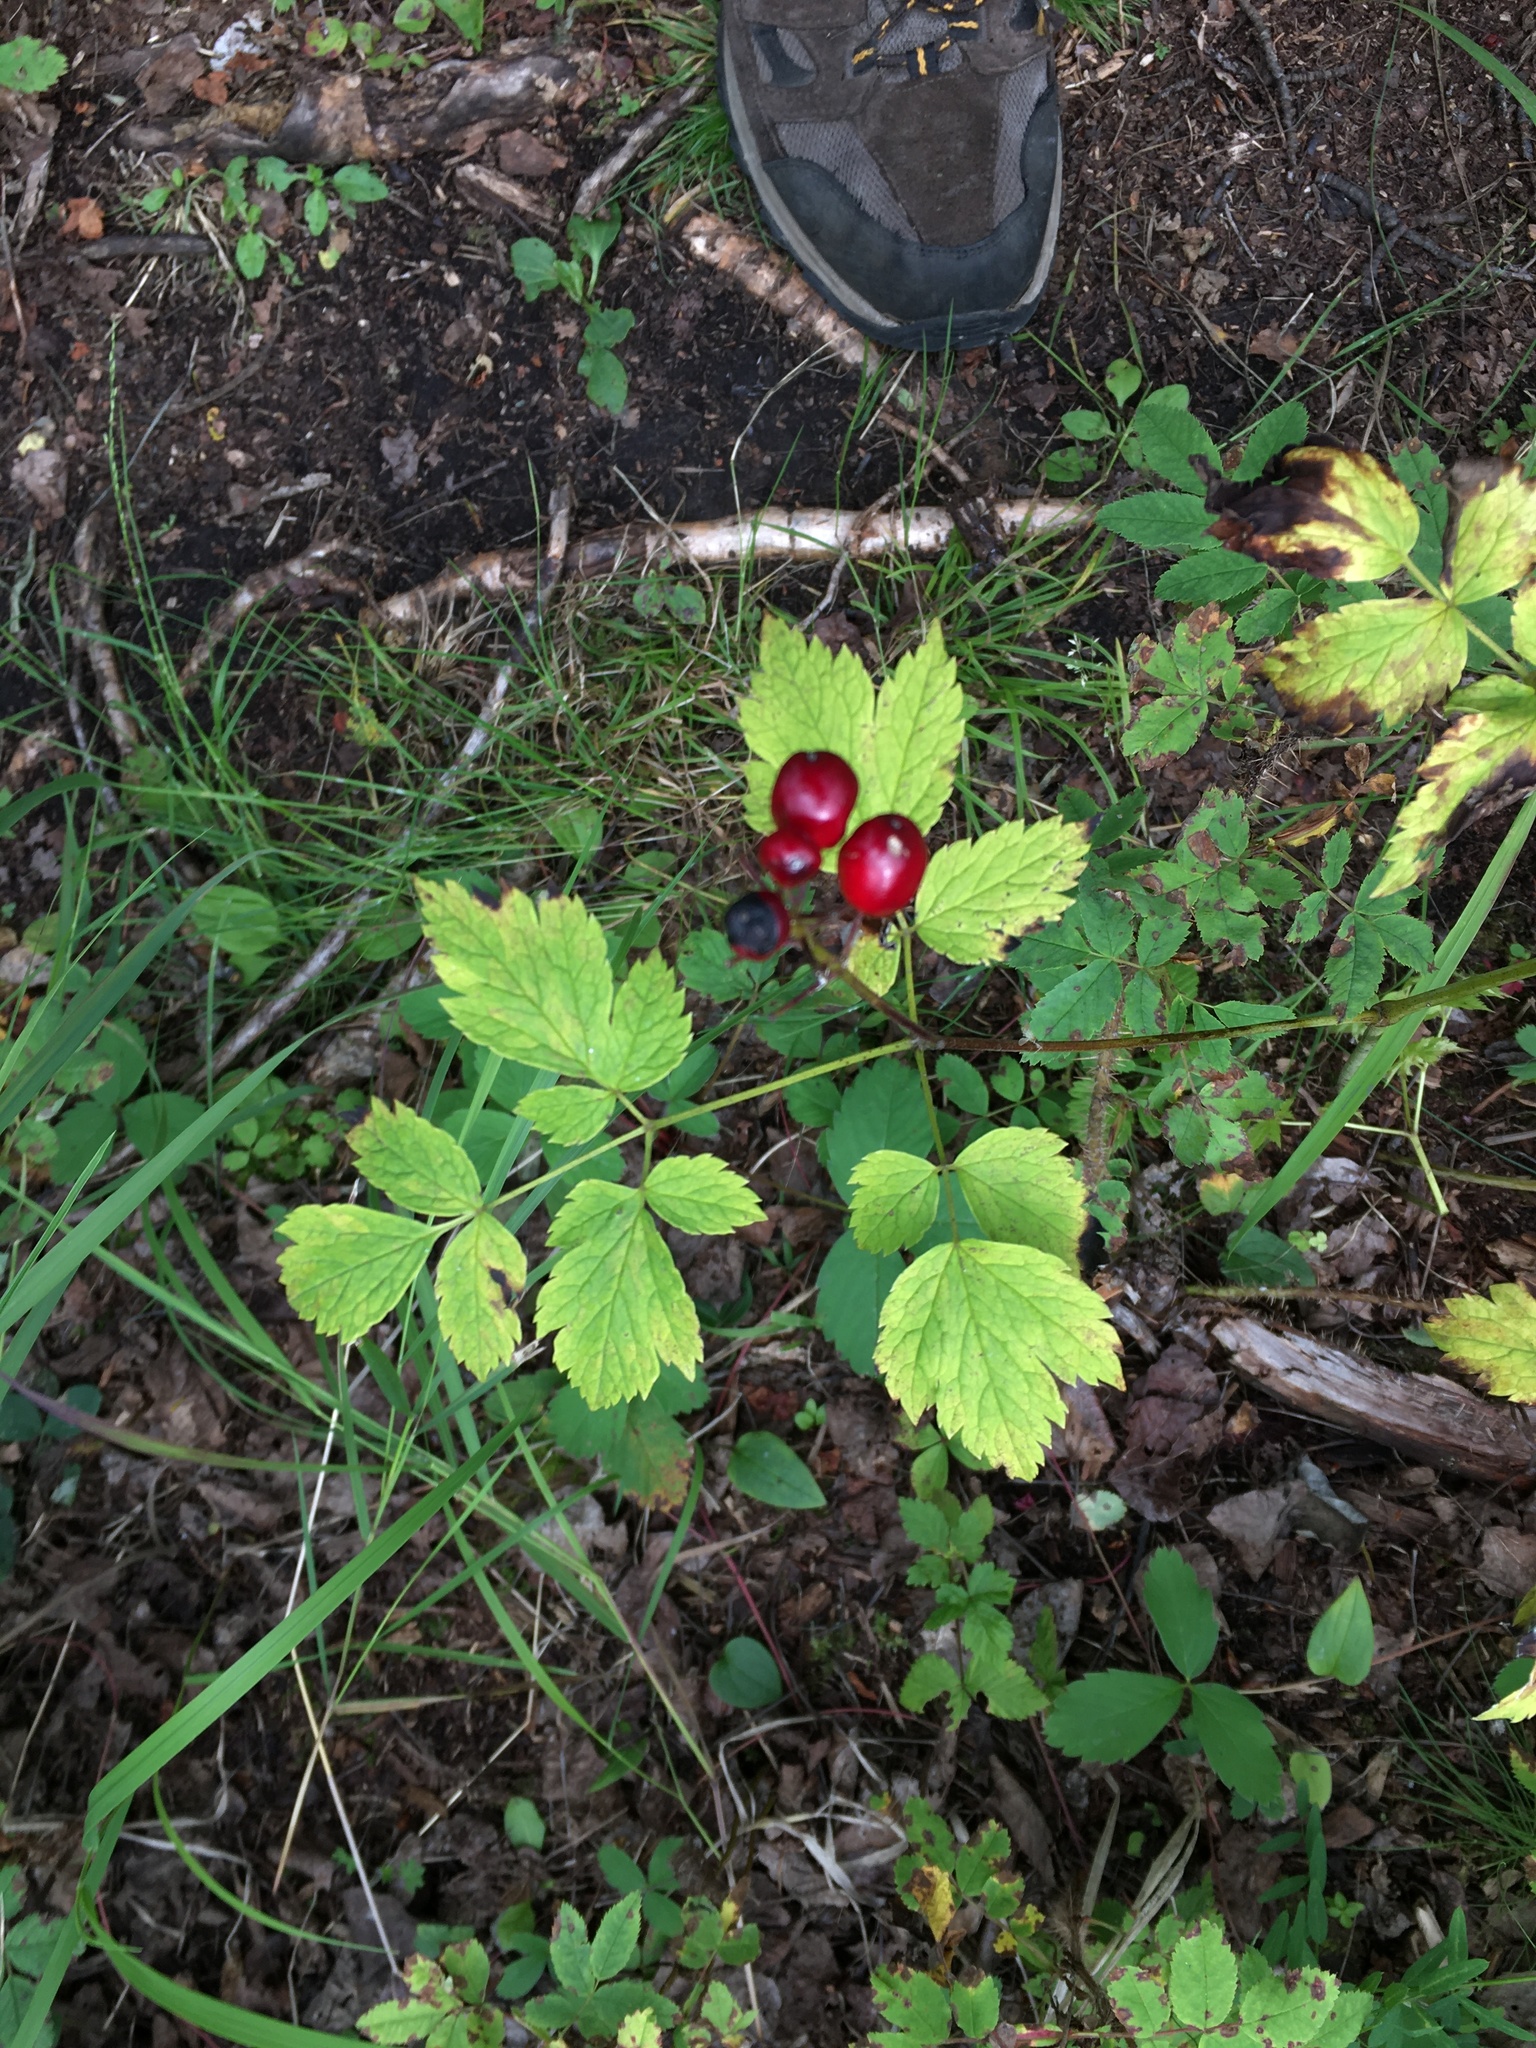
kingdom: Plantae
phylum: Tracheophyta
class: Magnoliopsida
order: Ranunculales
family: Ranunculaceae
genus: Actaea
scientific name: Actaea rubra
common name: Red baneberry
